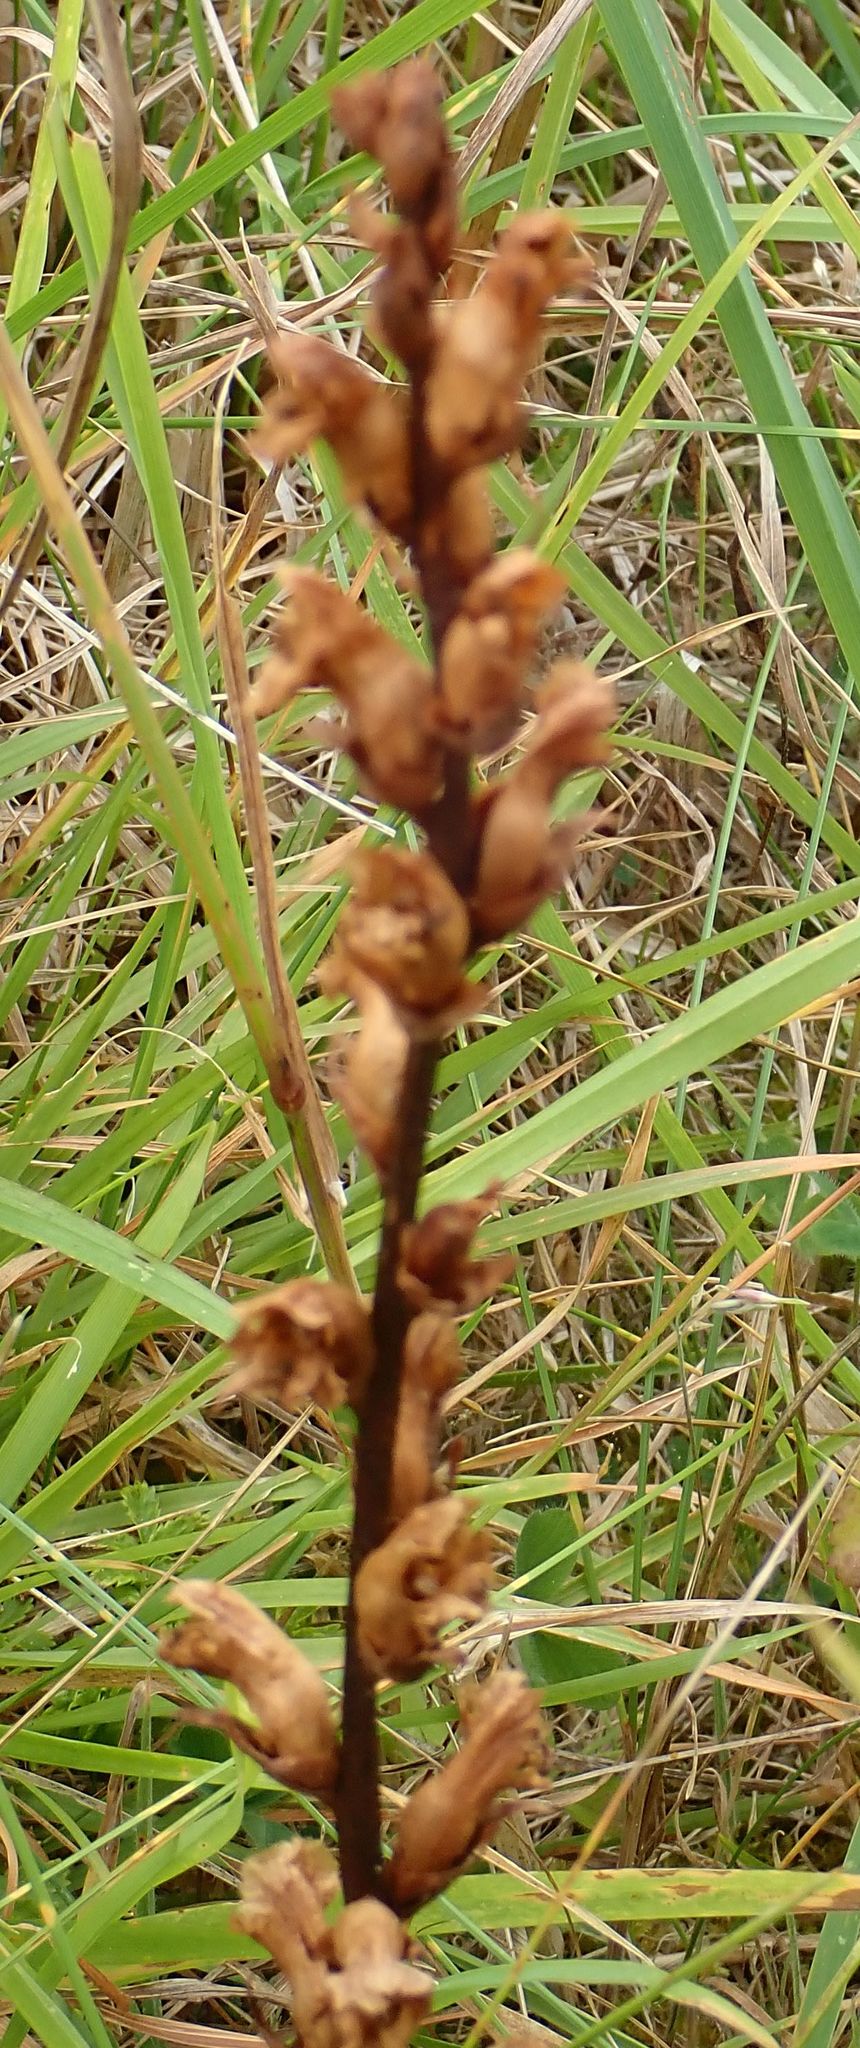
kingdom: Plantae
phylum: Tracheophyta
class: Magnoliopsida
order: Lamiales
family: Orobanchaceae
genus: Orobanche
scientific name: Orobanche minor
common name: Common broomrape
